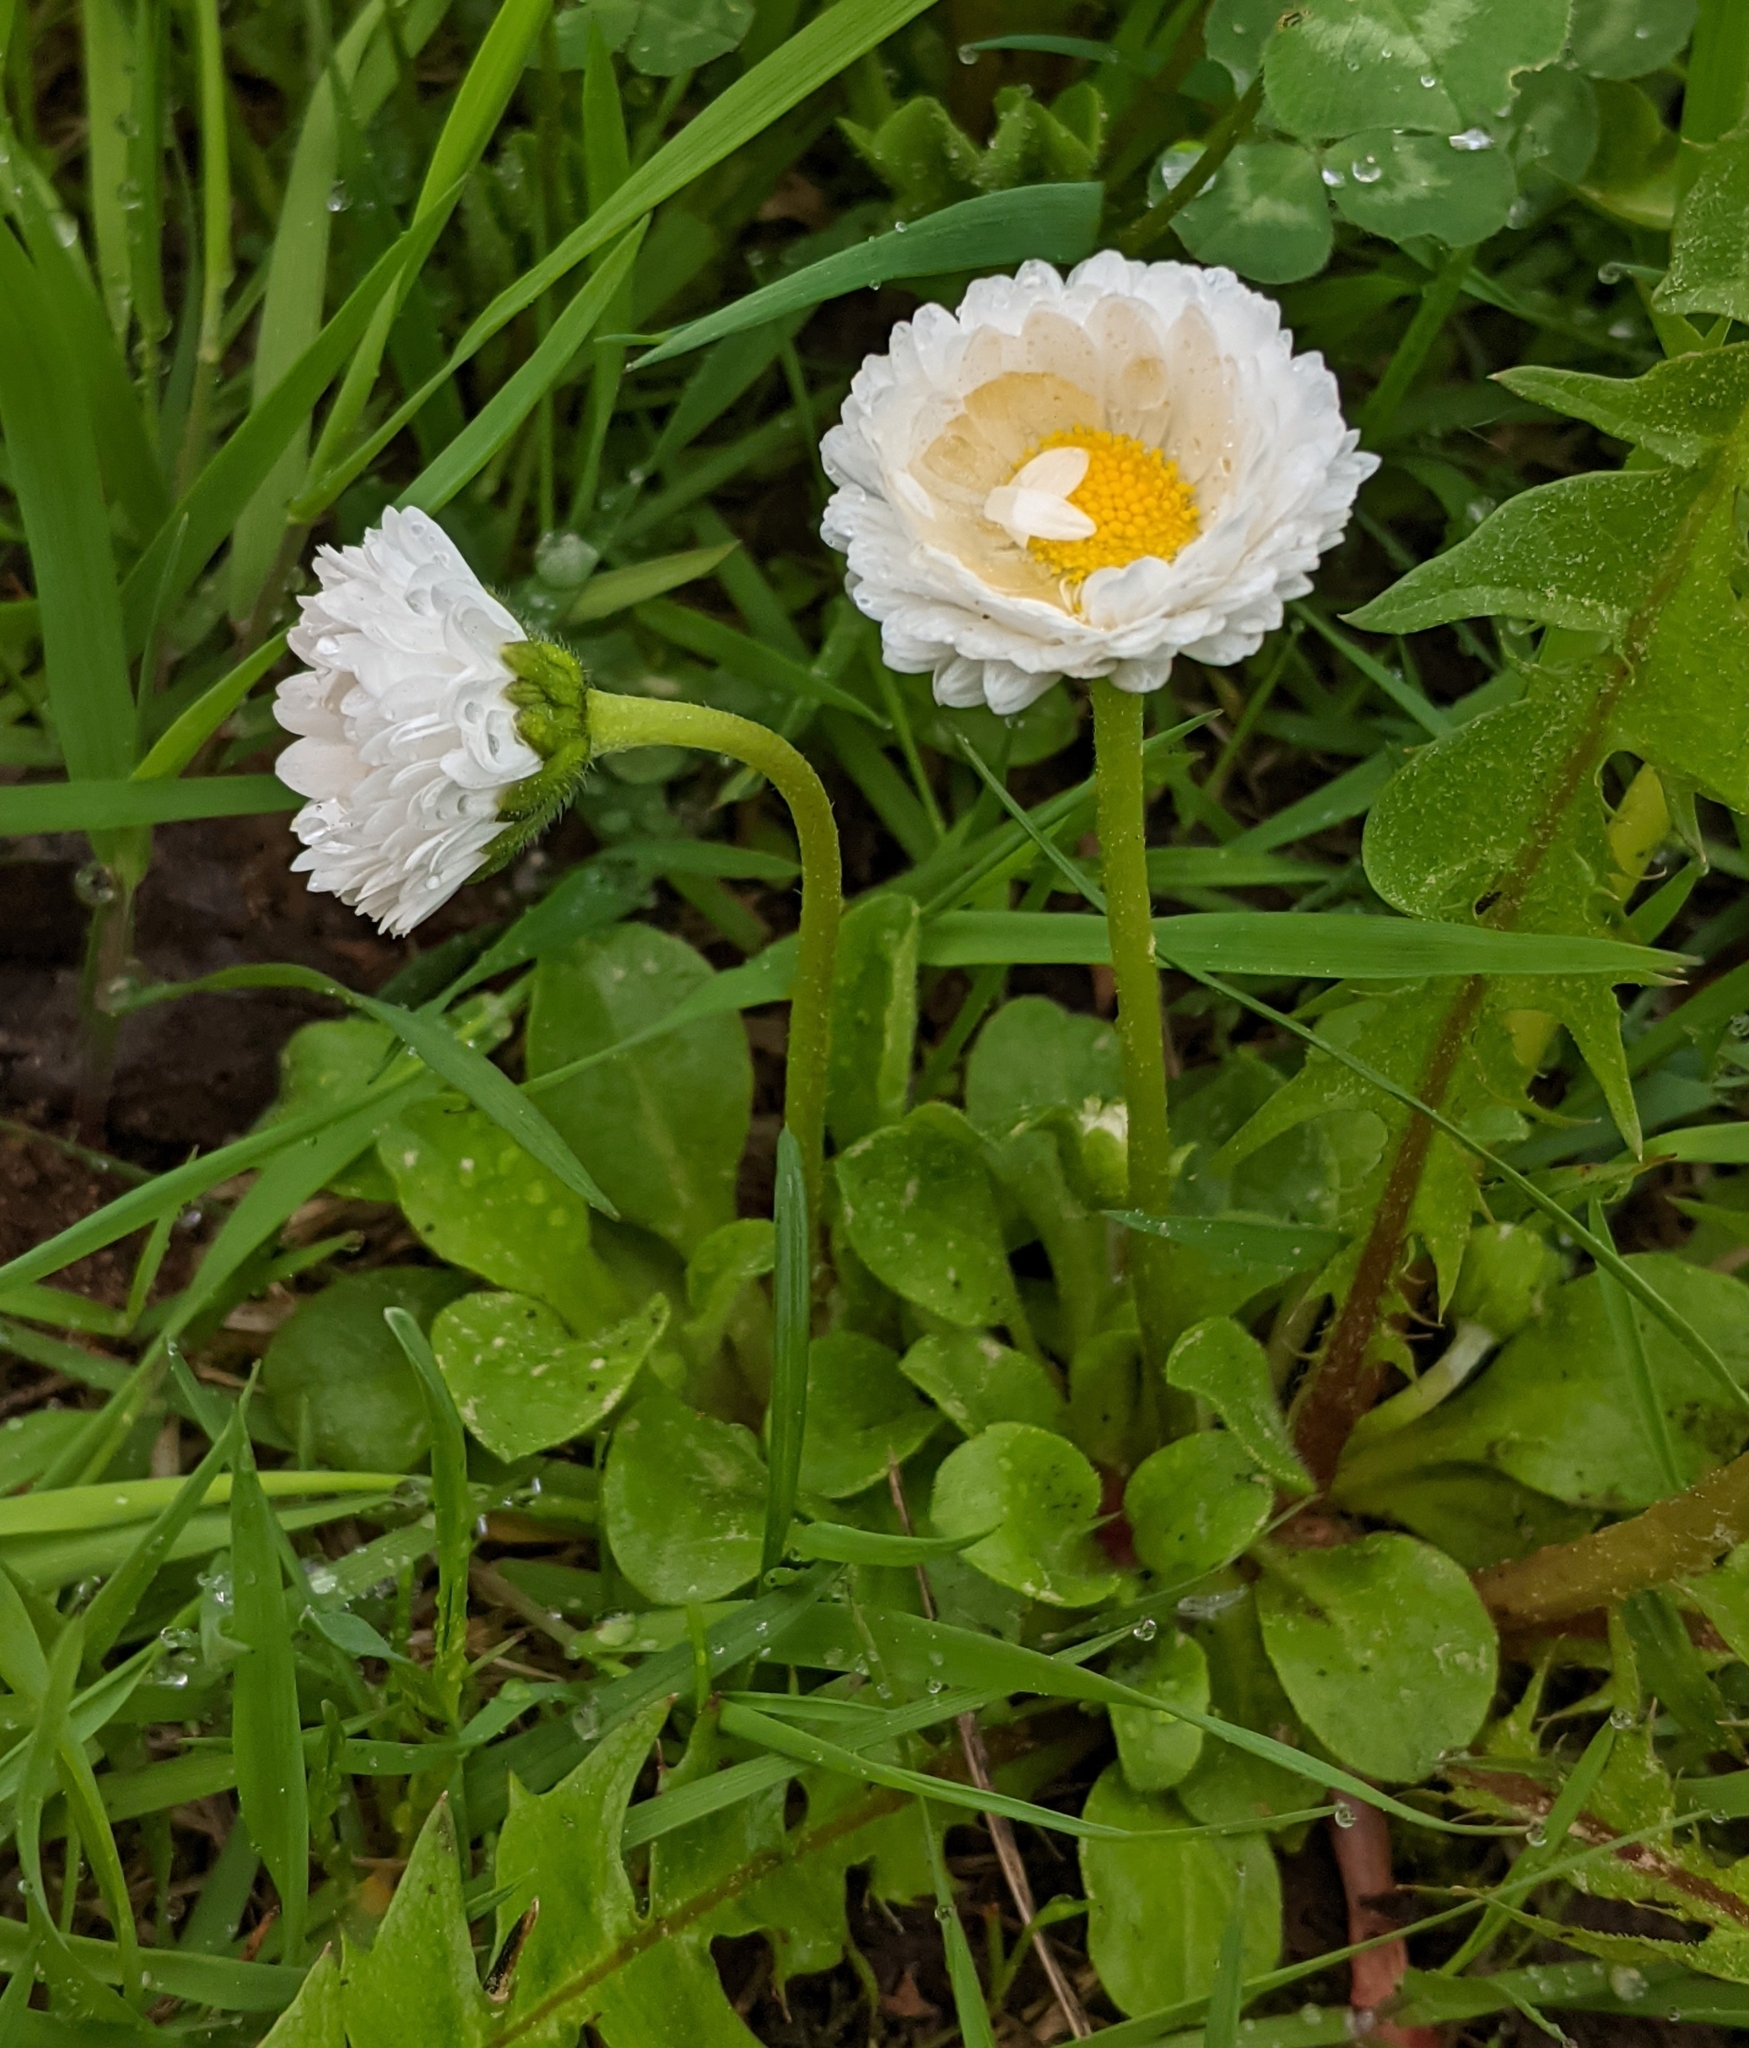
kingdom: Plantae
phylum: Tracheophyta
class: Magnoliopsida
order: Asterales
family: Asteraceae
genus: Bellis
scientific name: Bellis perennis
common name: Lawndaisy
